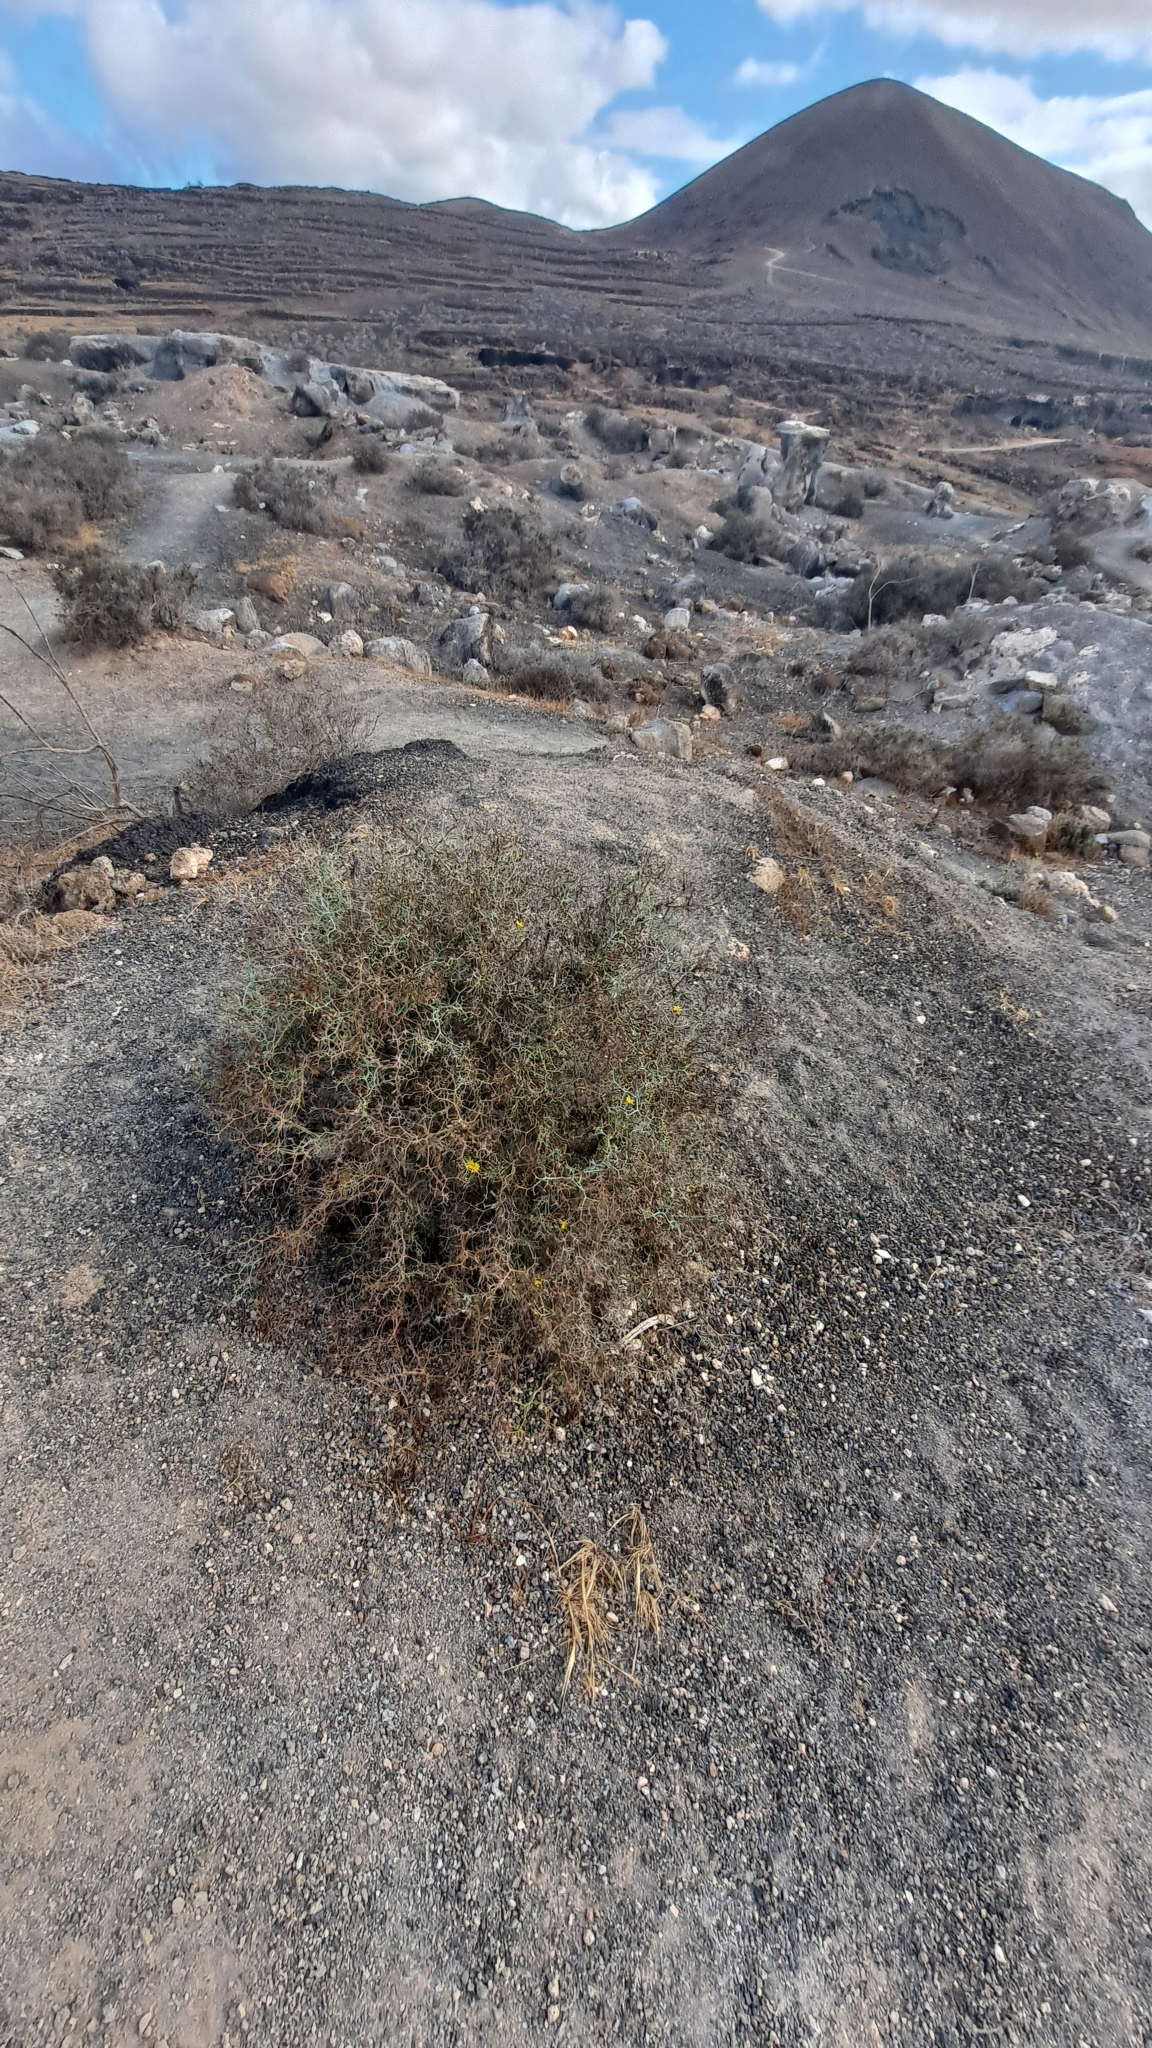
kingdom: Plantae
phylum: Tracheophyta
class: Magnoliopsida
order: Asterales
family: Asteraceae
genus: Launaea
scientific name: Launaea arborescens
